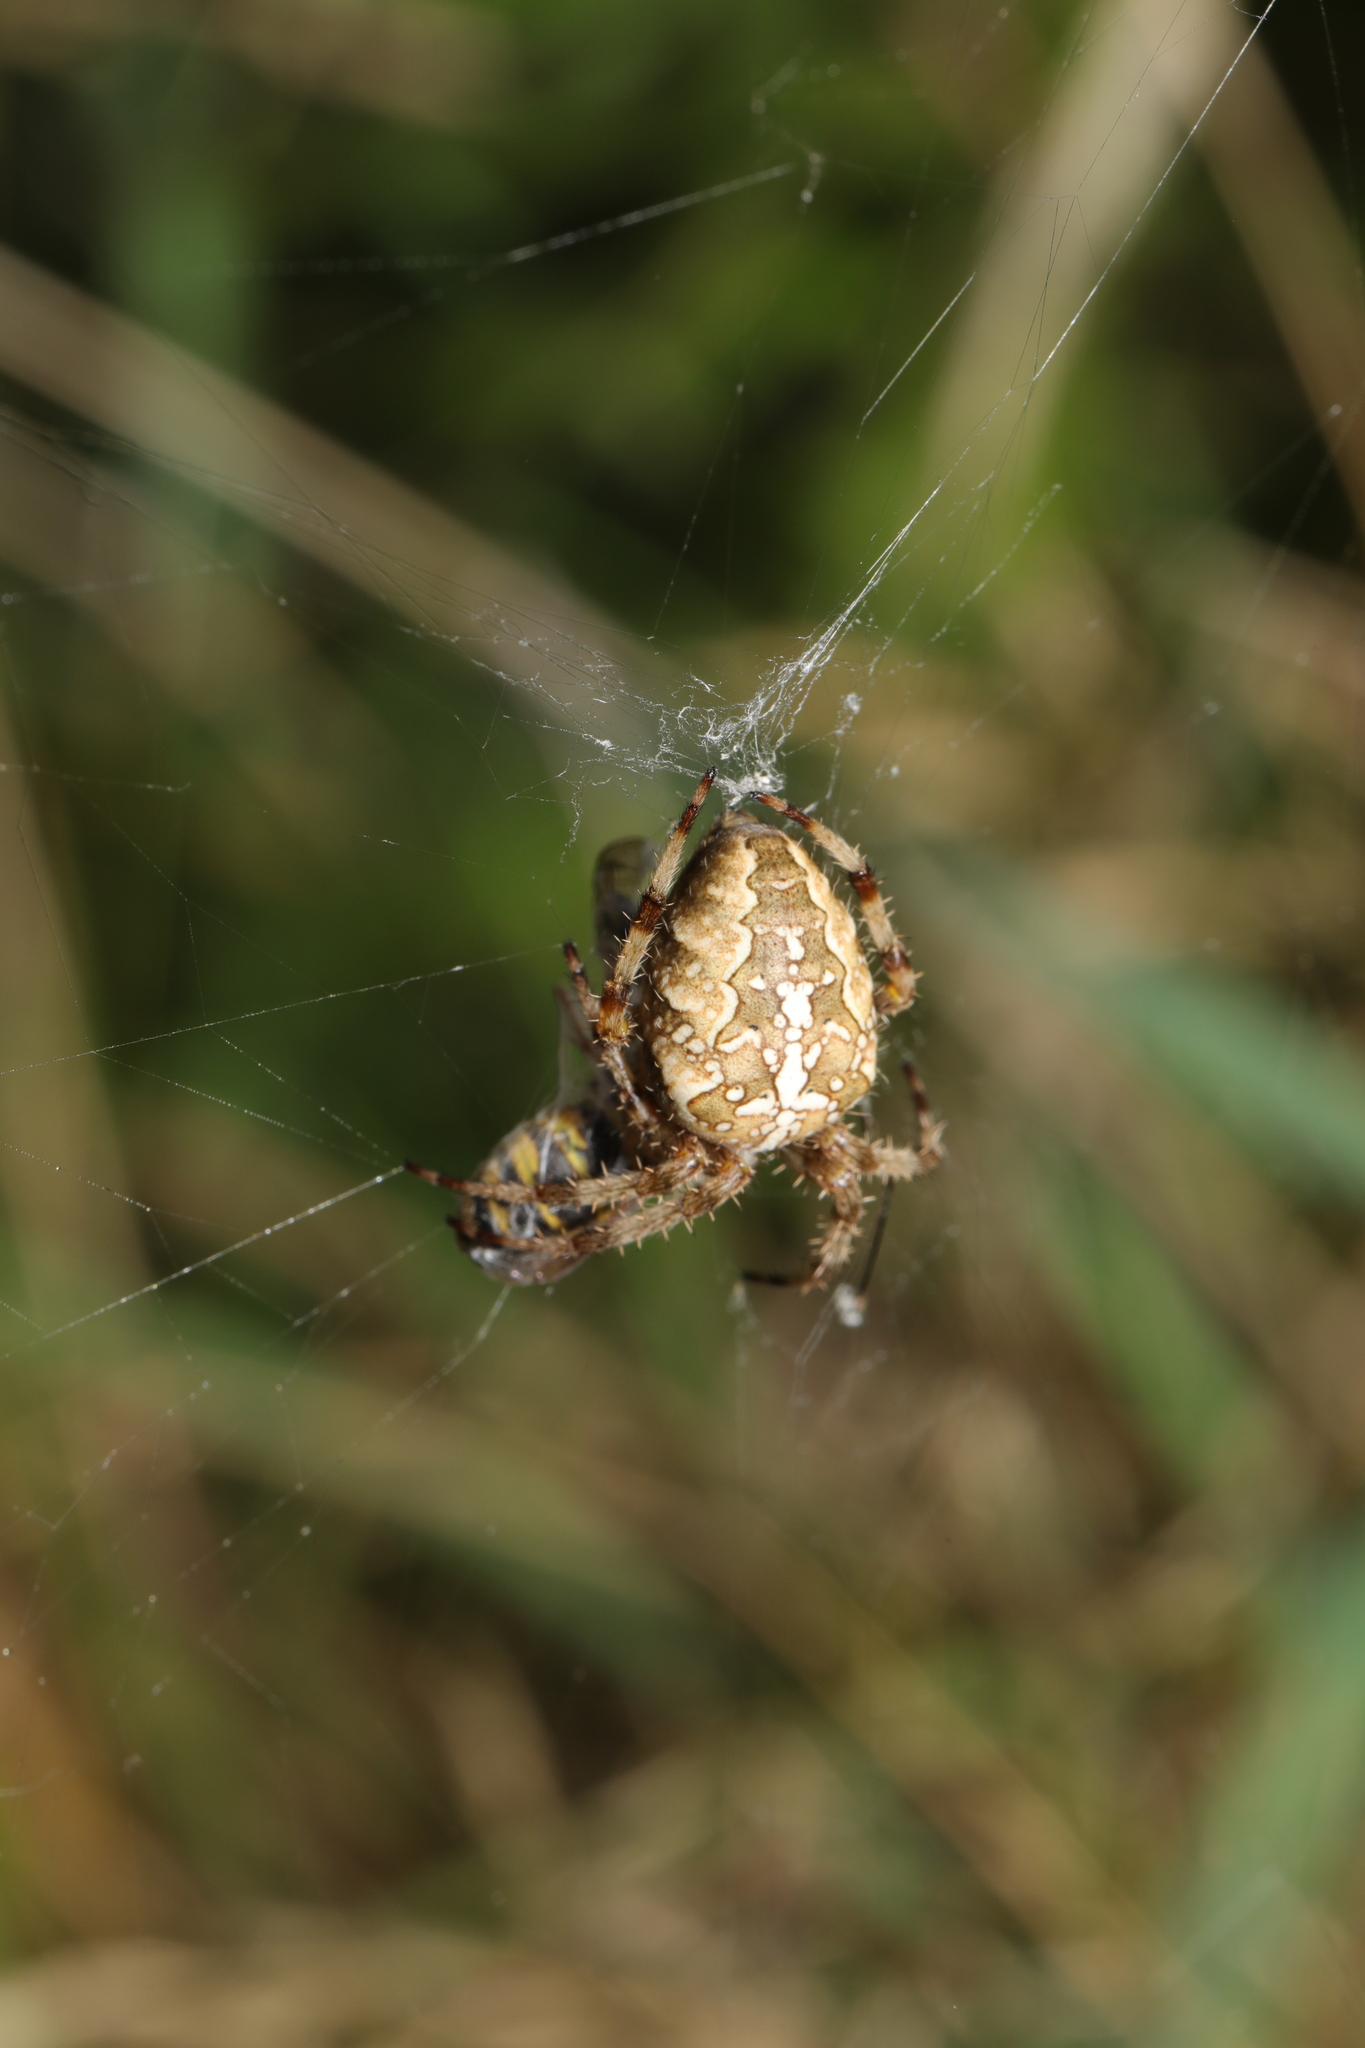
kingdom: Animalia
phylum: Arthropoda
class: Arachnida
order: Araneae
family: Araneidae
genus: Araneus
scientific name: Araneus diadematus
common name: Cross orbweaver
